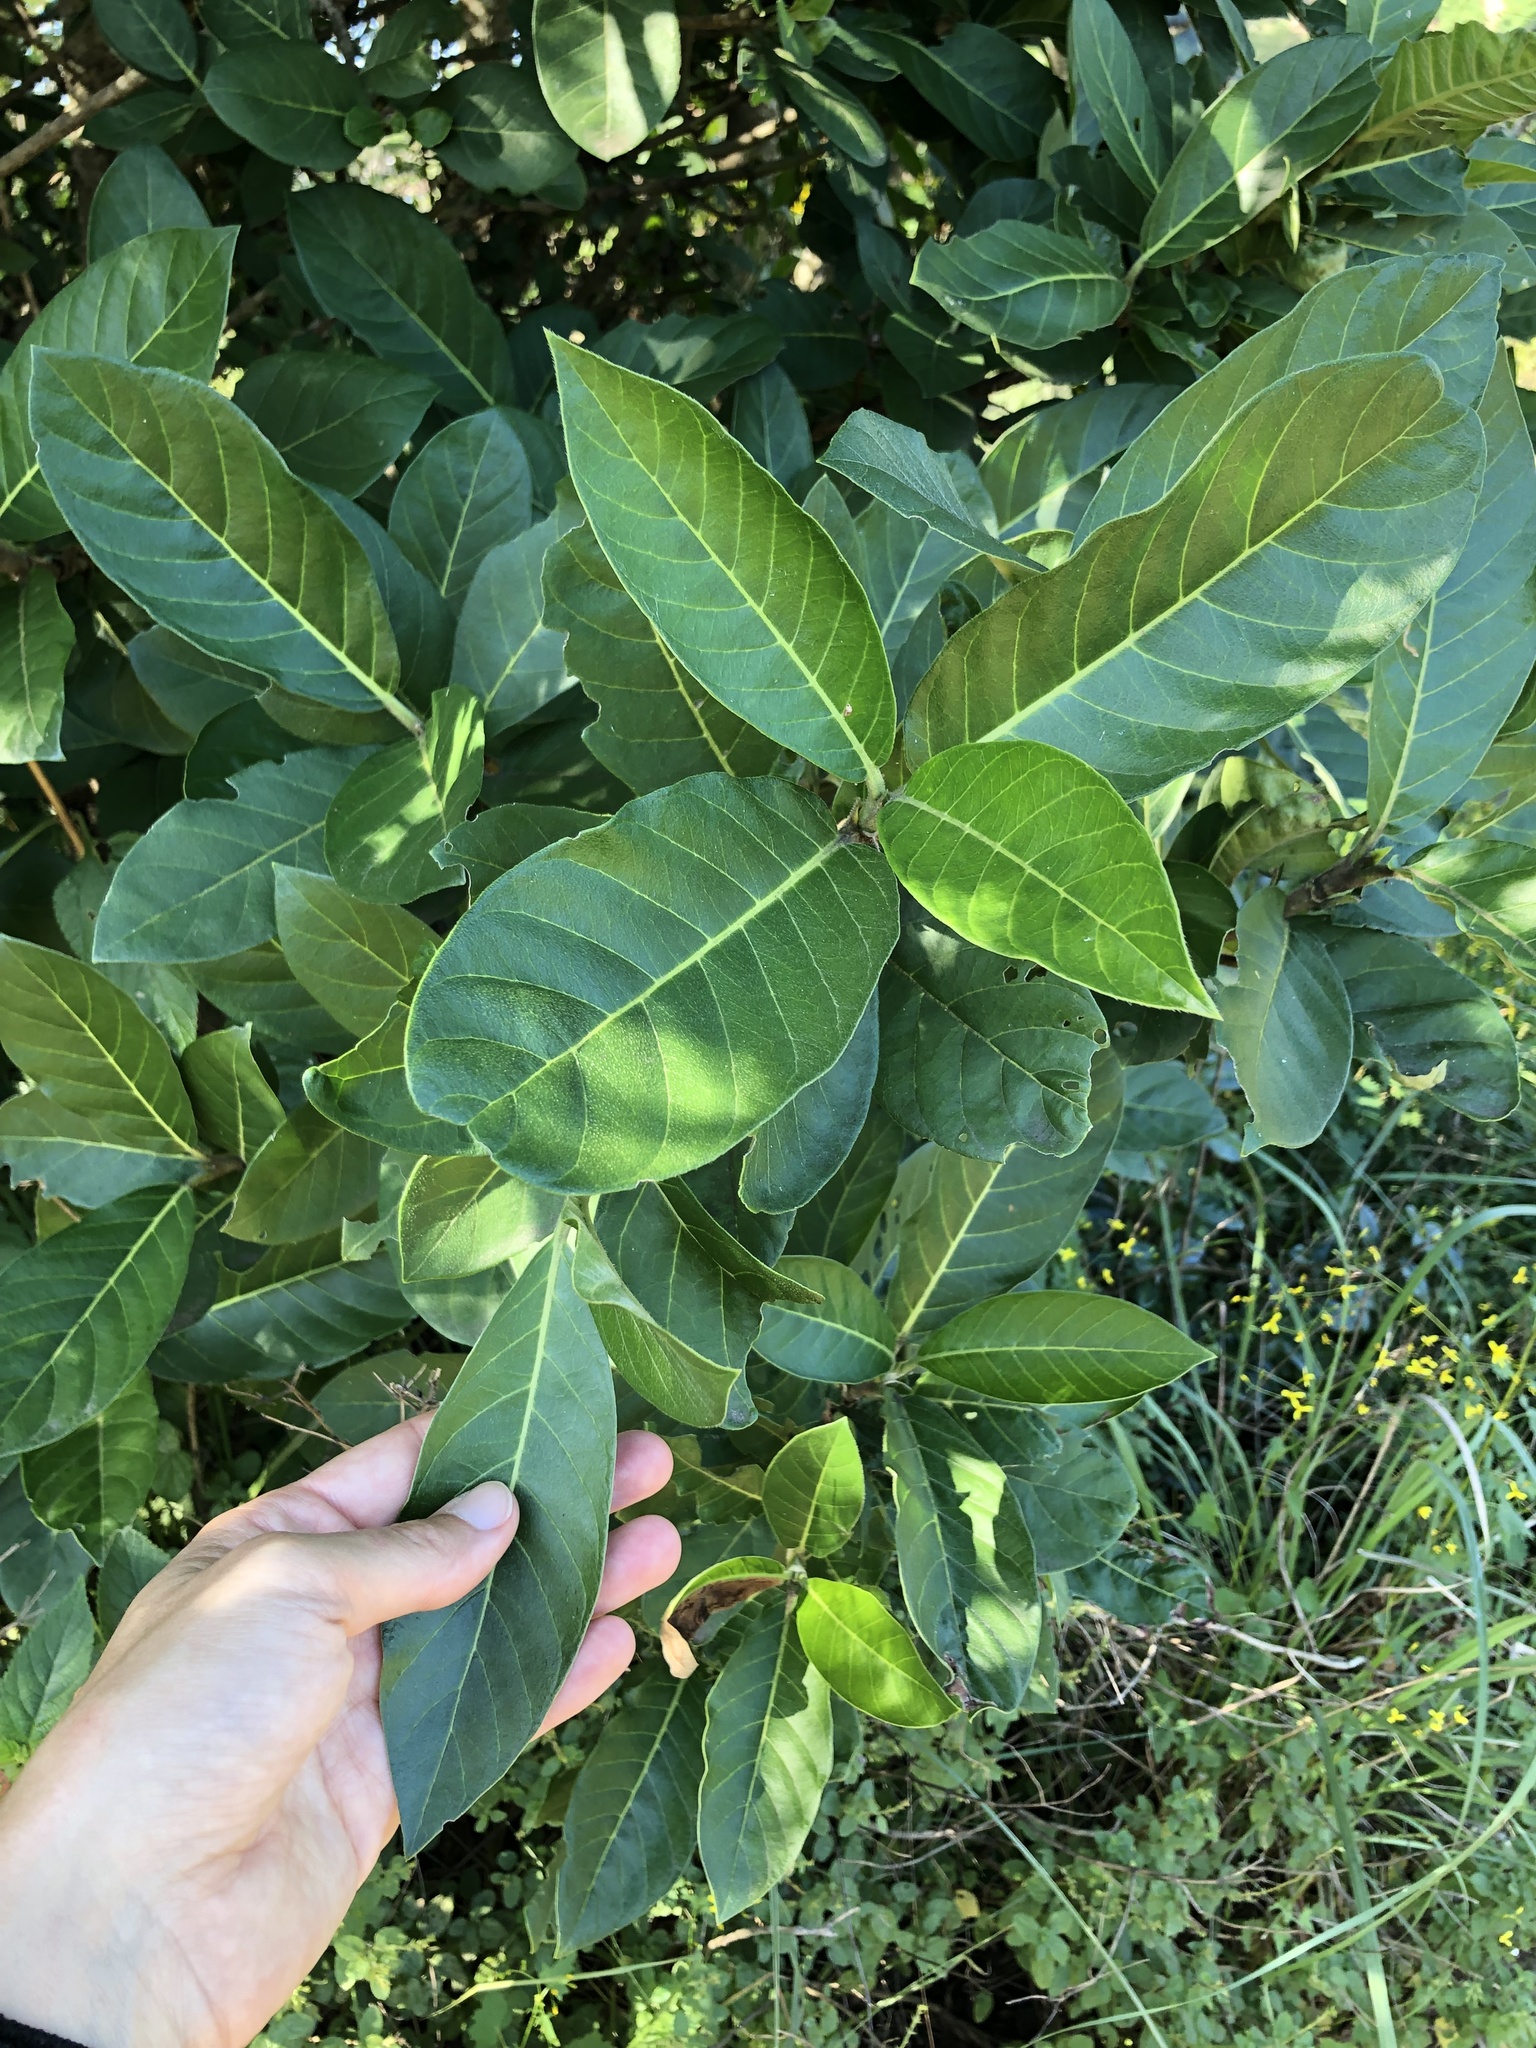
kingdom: Plantae
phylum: Tracheophyta
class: Magnoliopsida
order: Gentianales
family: Rubiaceae
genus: Burchellia
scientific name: Burchellia bubalina
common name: Wild pomegranate
